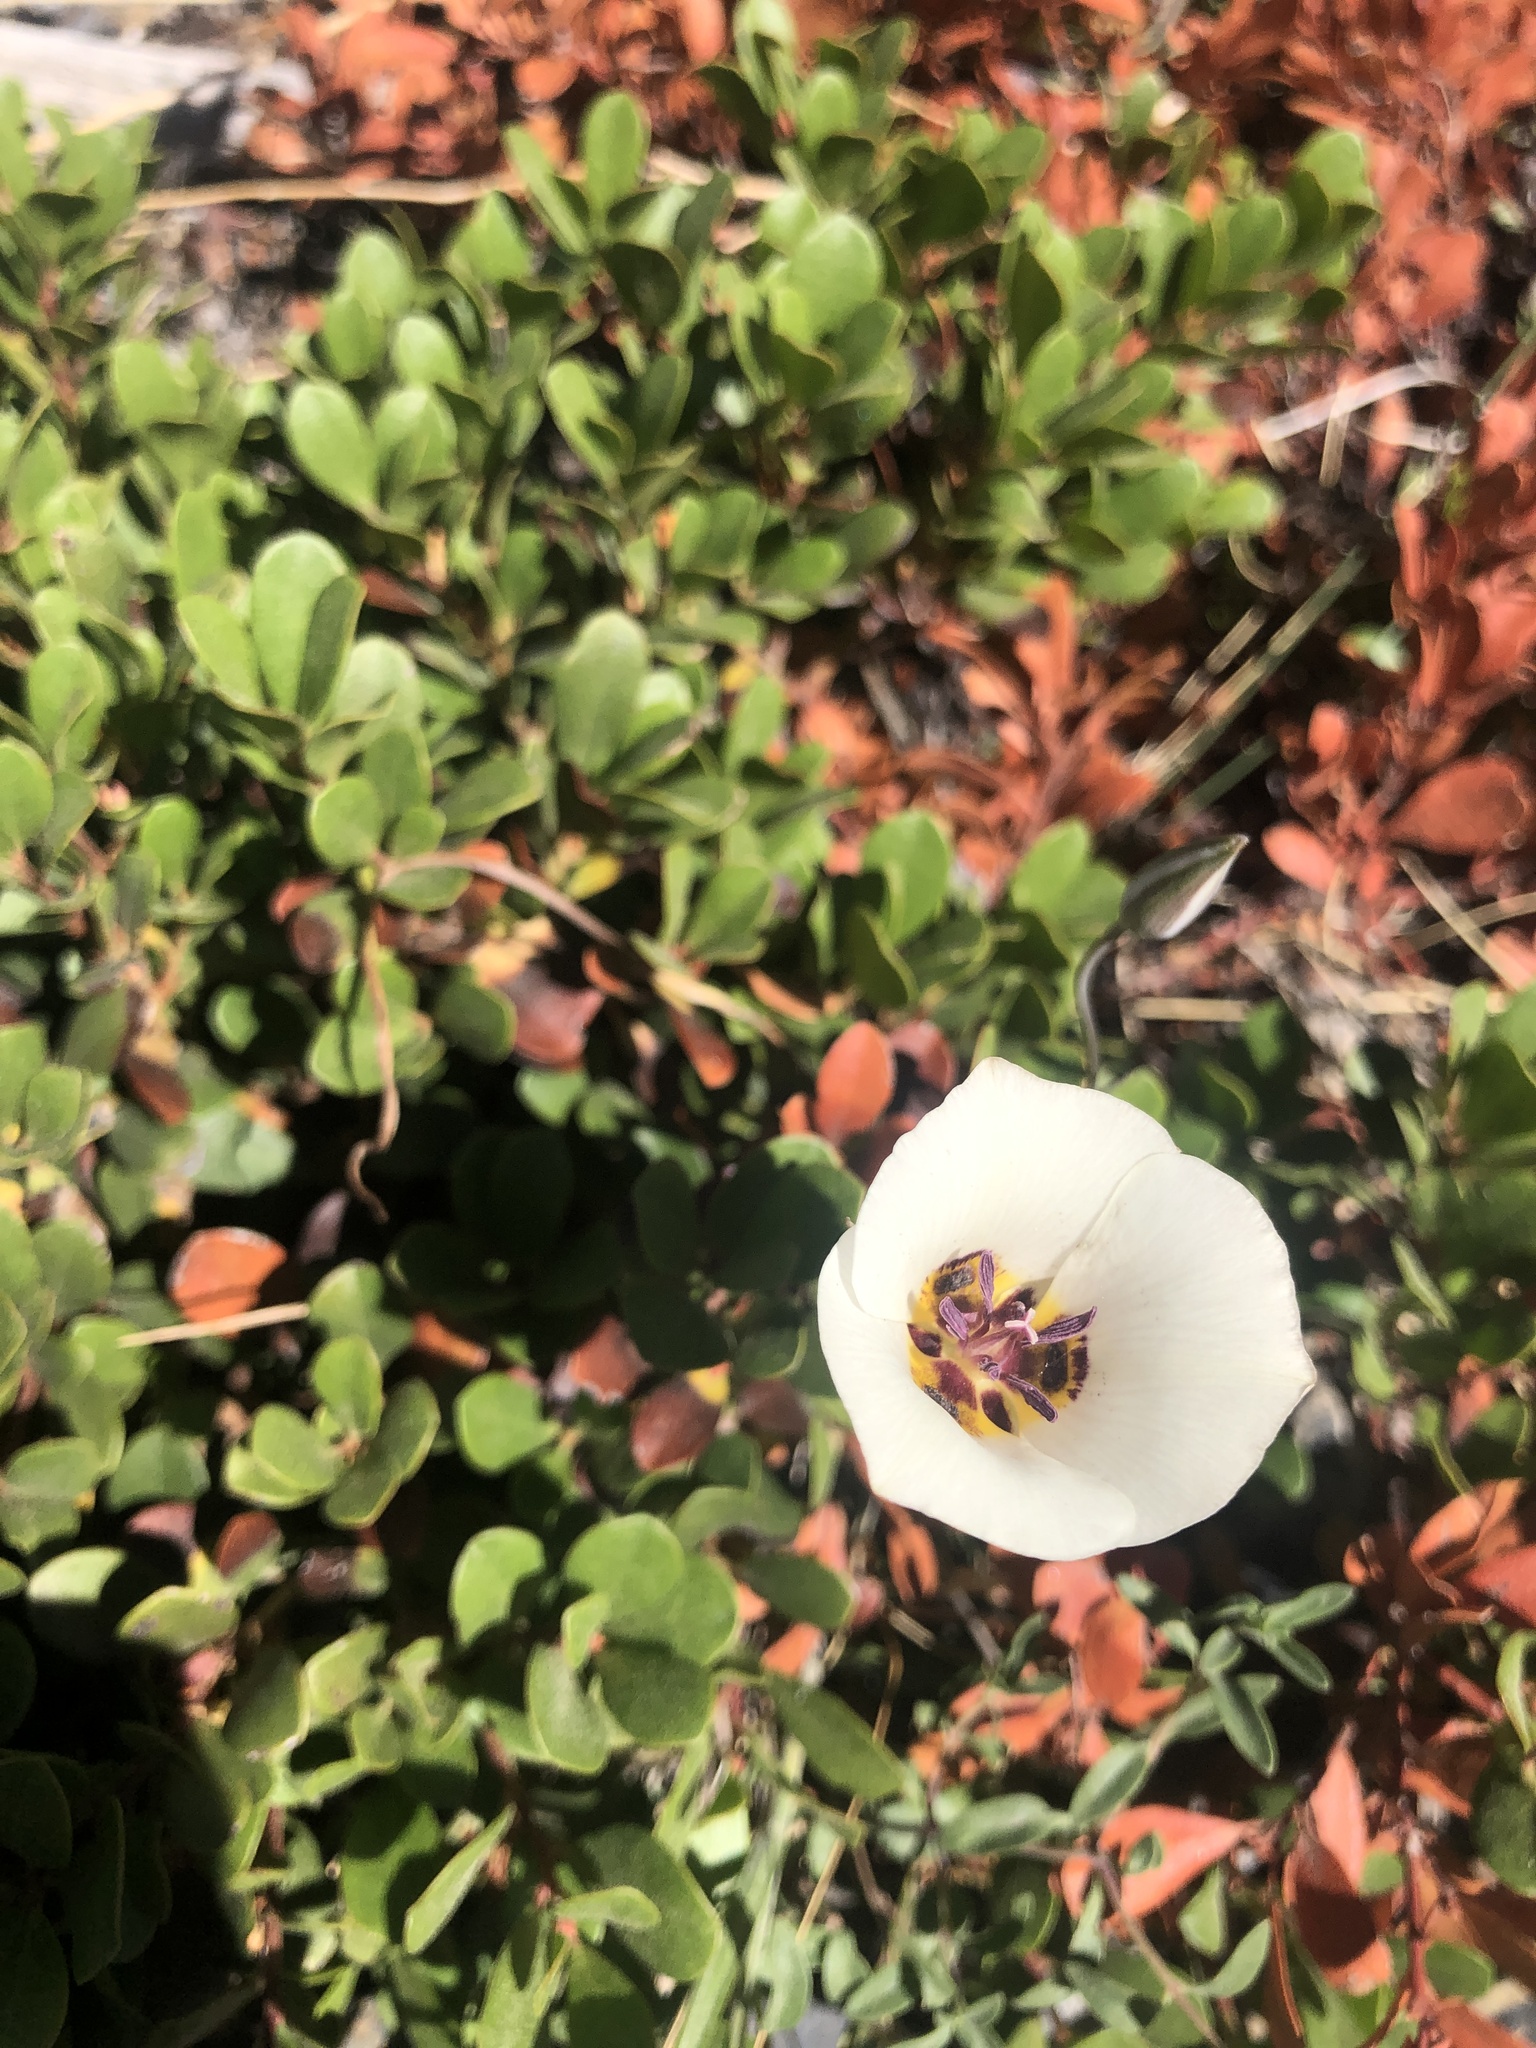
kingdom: Plantae
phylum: Tracheophyta
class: Liliopsida
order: Liliales
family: Liliaceae
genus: Calochortus
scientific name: Calochortus bruneaunis
